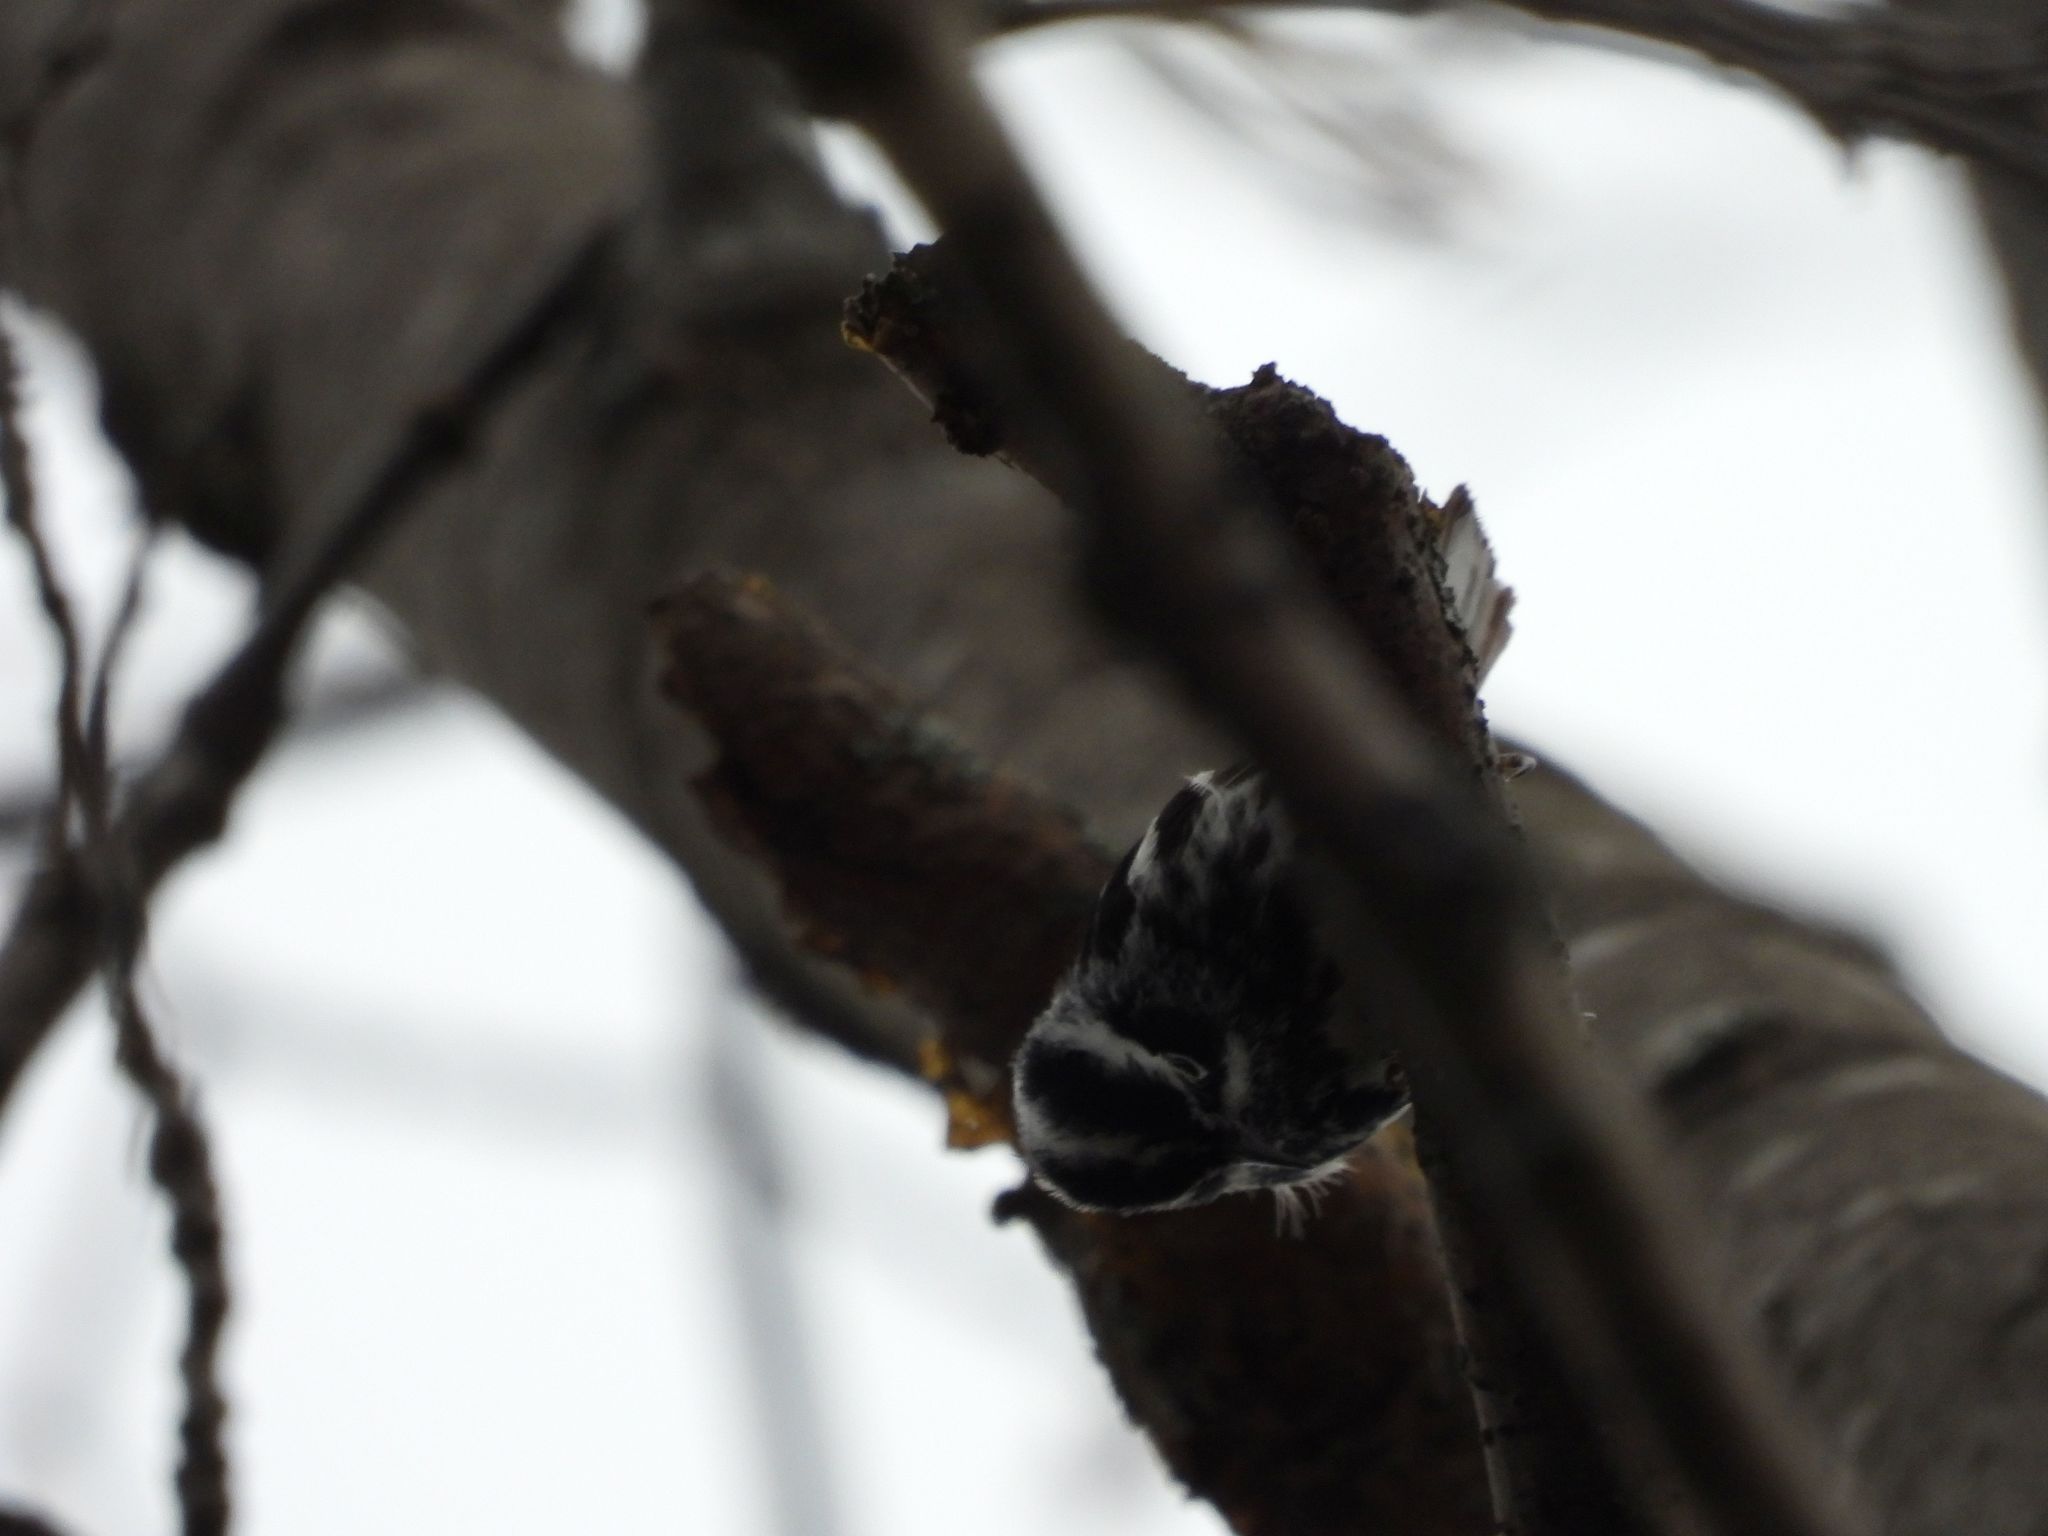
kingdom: Animalia
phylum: Chordata
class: Aves
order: Passeriformes
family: Parulidae
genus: Mniotilta
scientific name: Mniotilta varia
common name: Black-and-white warbler
